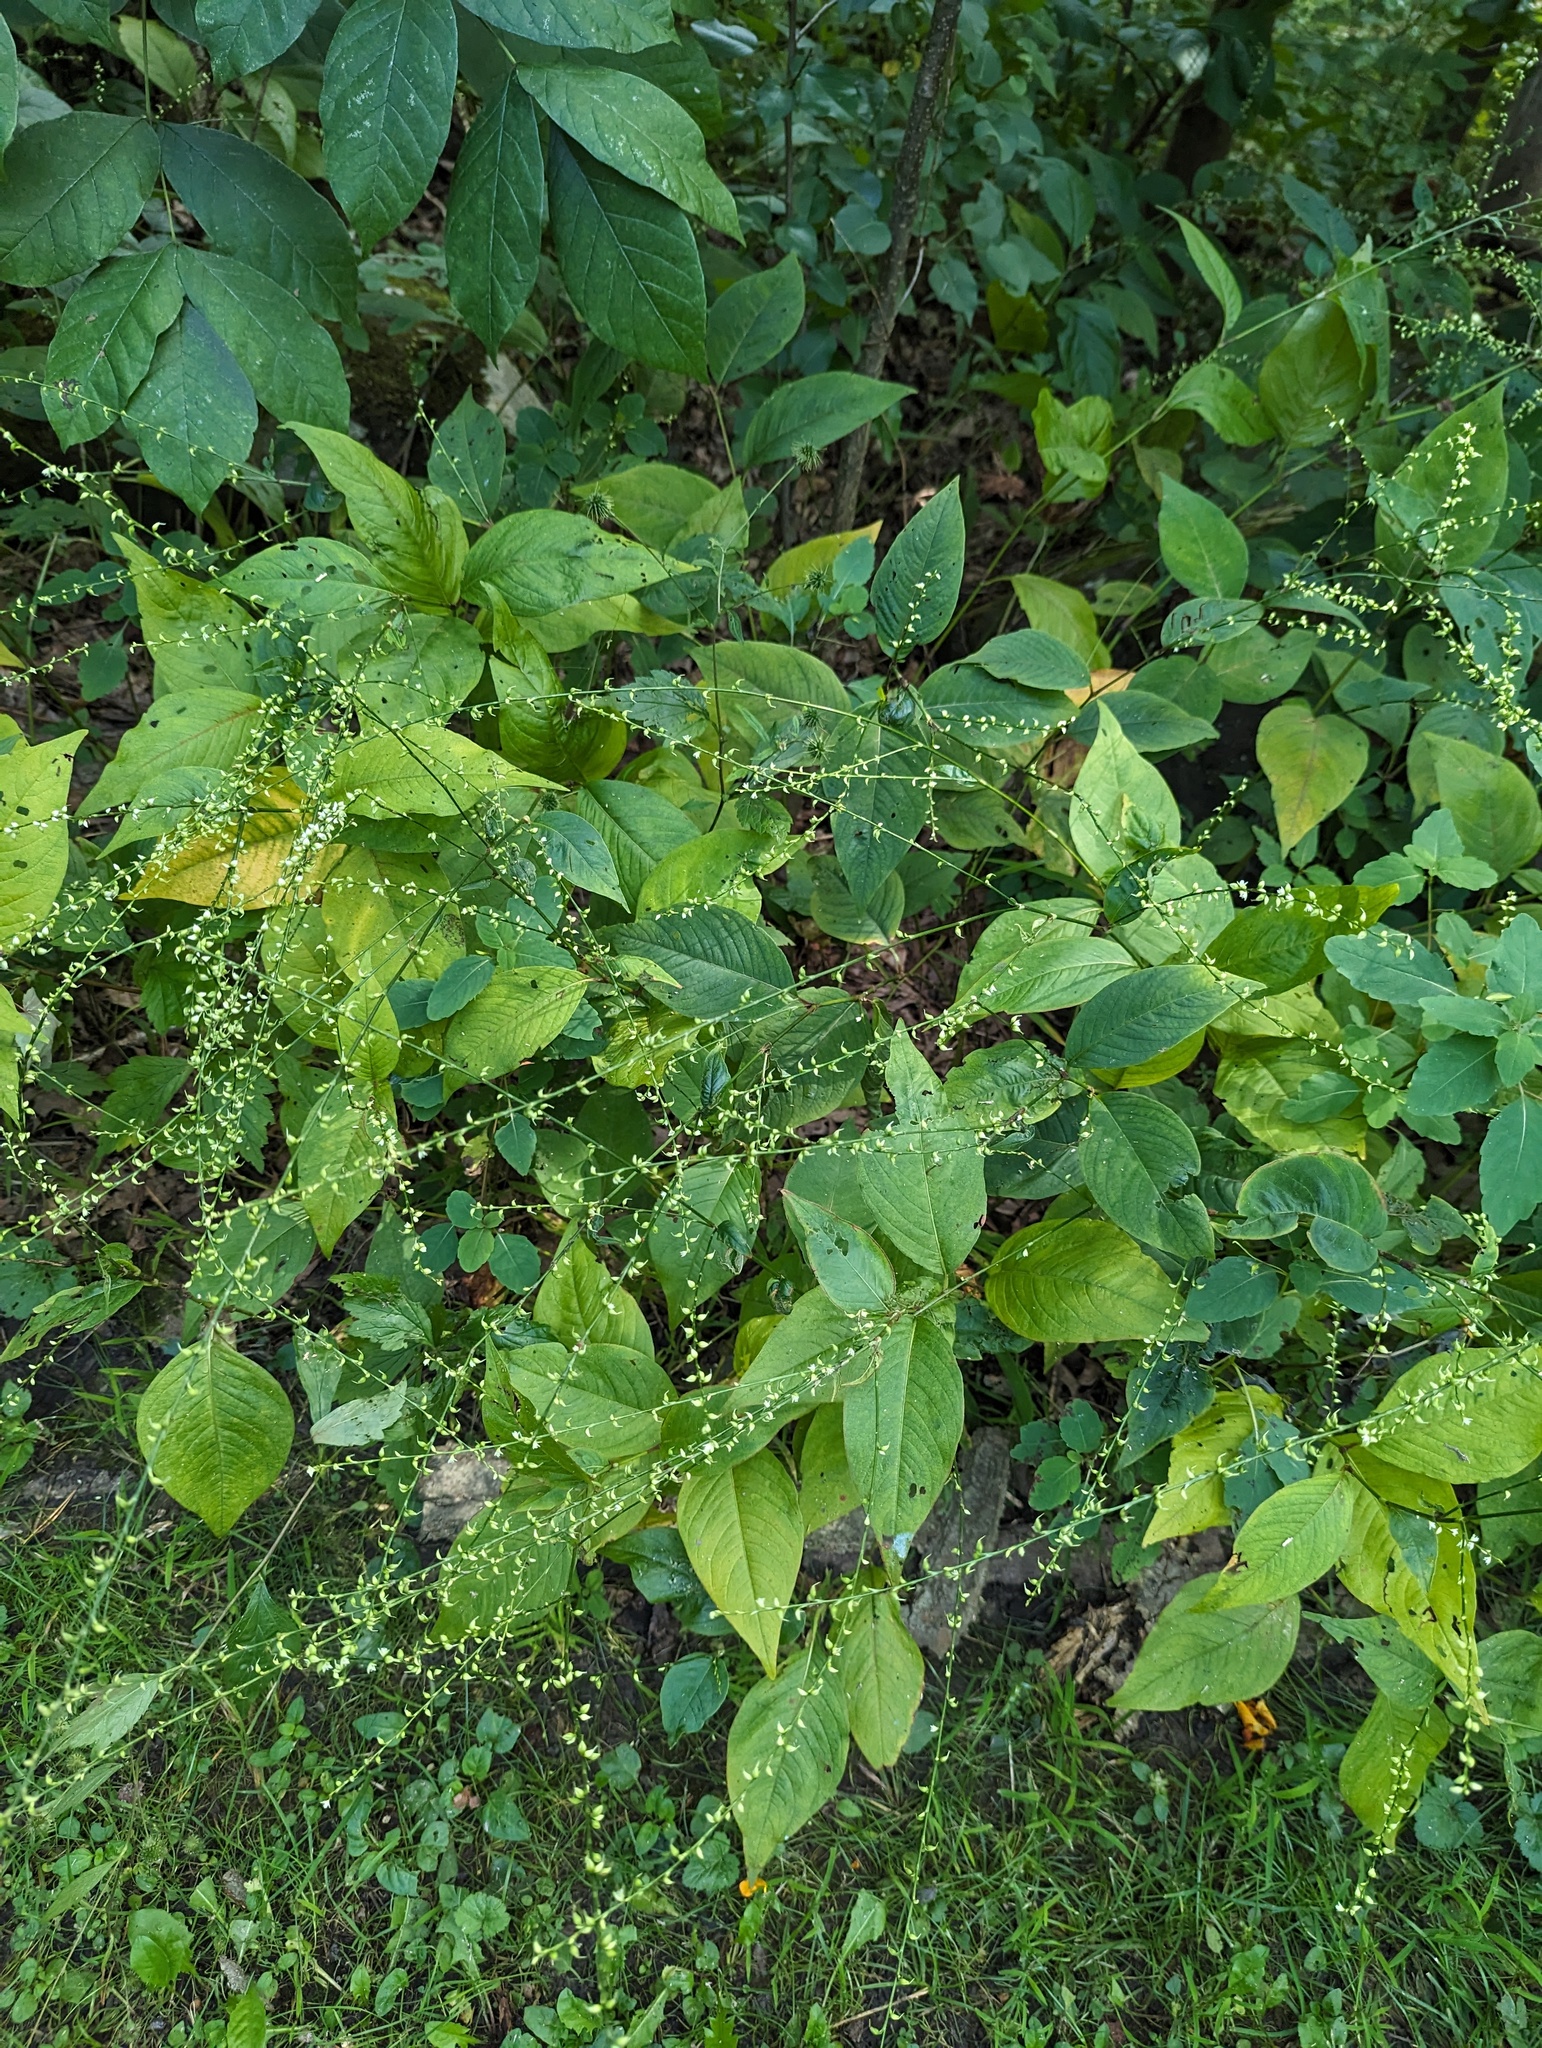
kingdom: Plantae
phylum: Tracheophyta
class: Magnoliopsida
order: Caryophyllales
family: Polygonaceae
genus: Persicaria
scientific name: Persicaria virginiana
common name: Jumpseed
